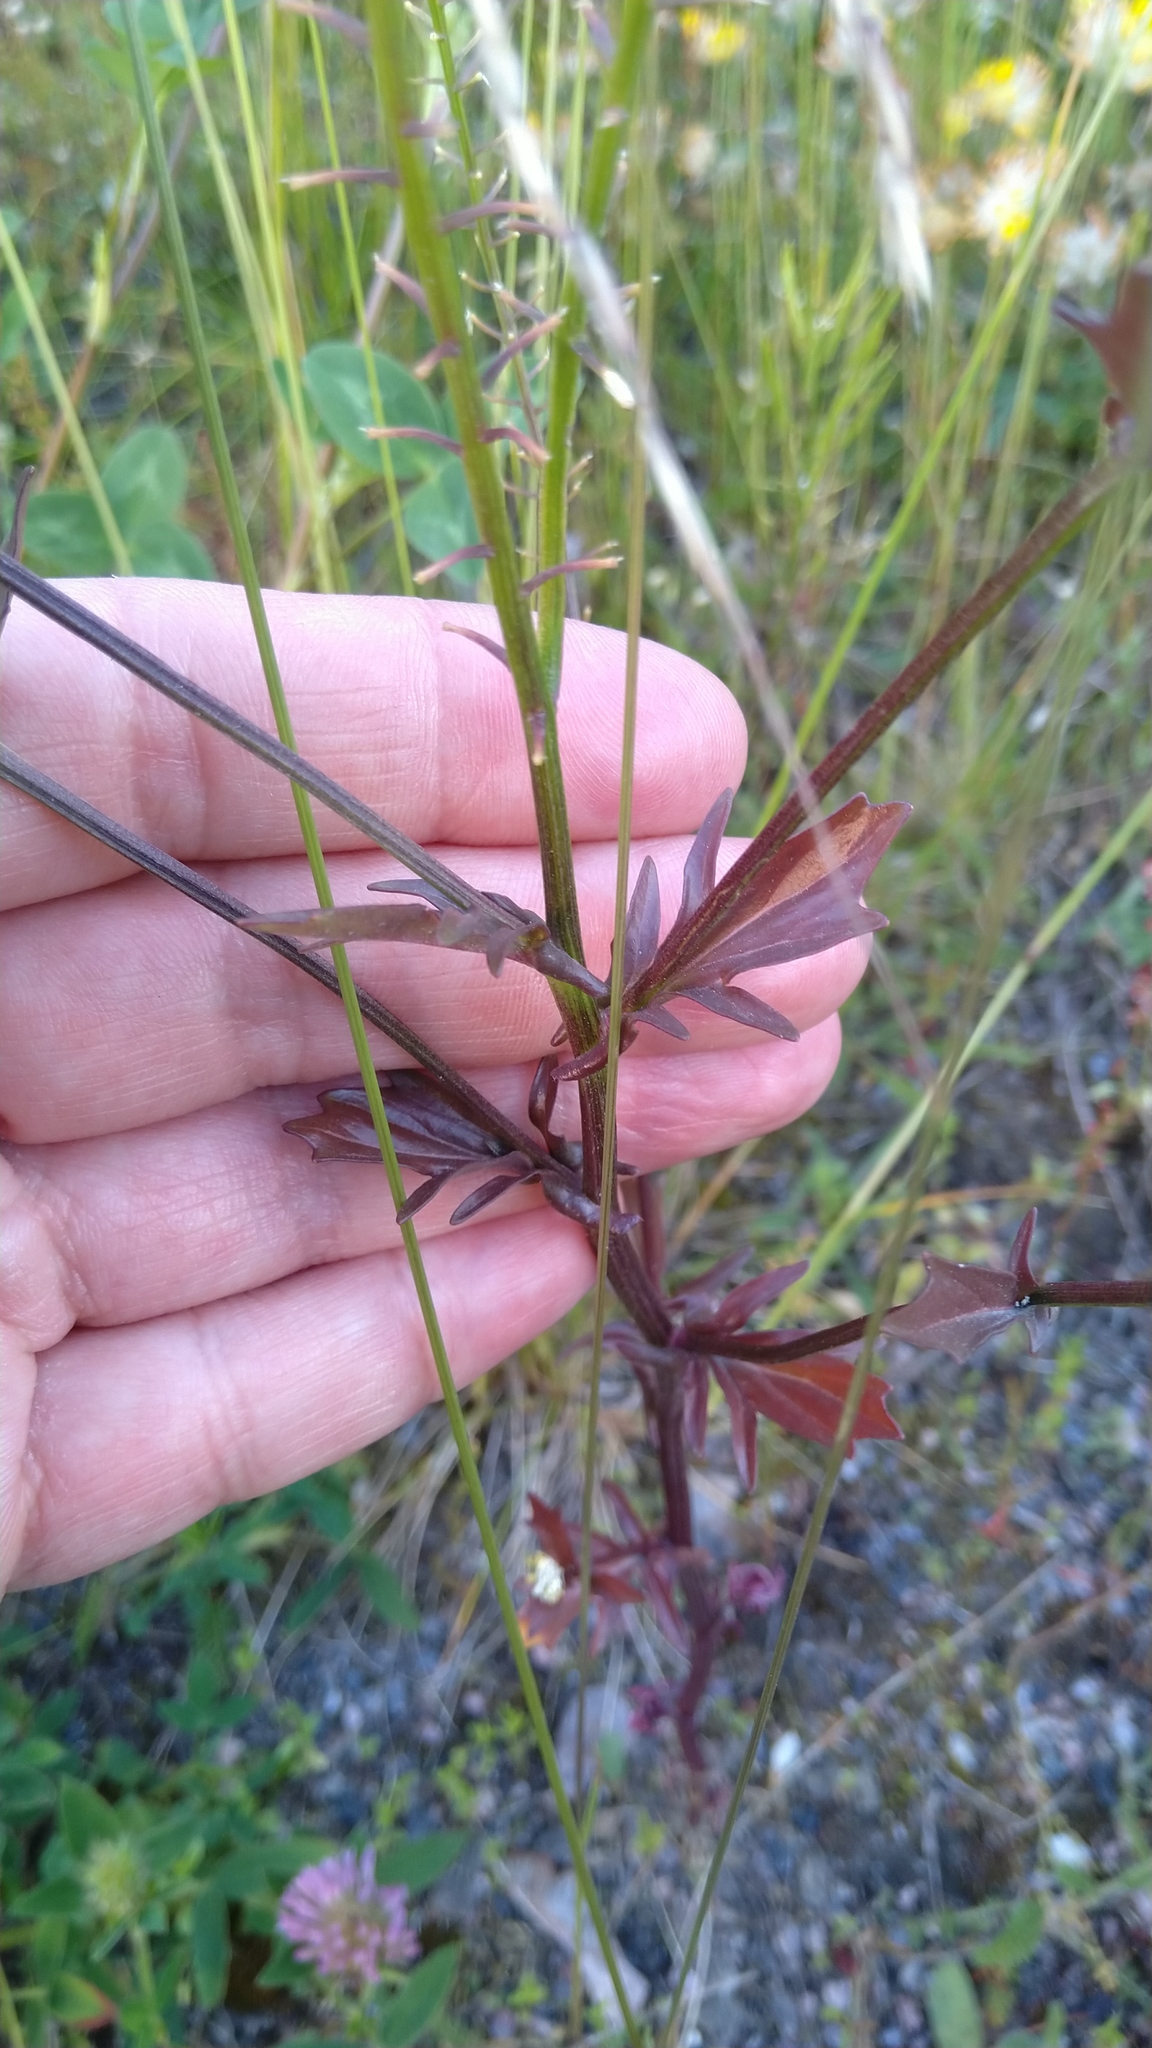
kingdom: Plantae
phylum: Tracheophyta
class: Magnoliopsida
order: Brassicales
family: Brassicaceae
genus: Barbarea
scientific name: Barbarea stricta
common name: Small-flowered winter-cress
